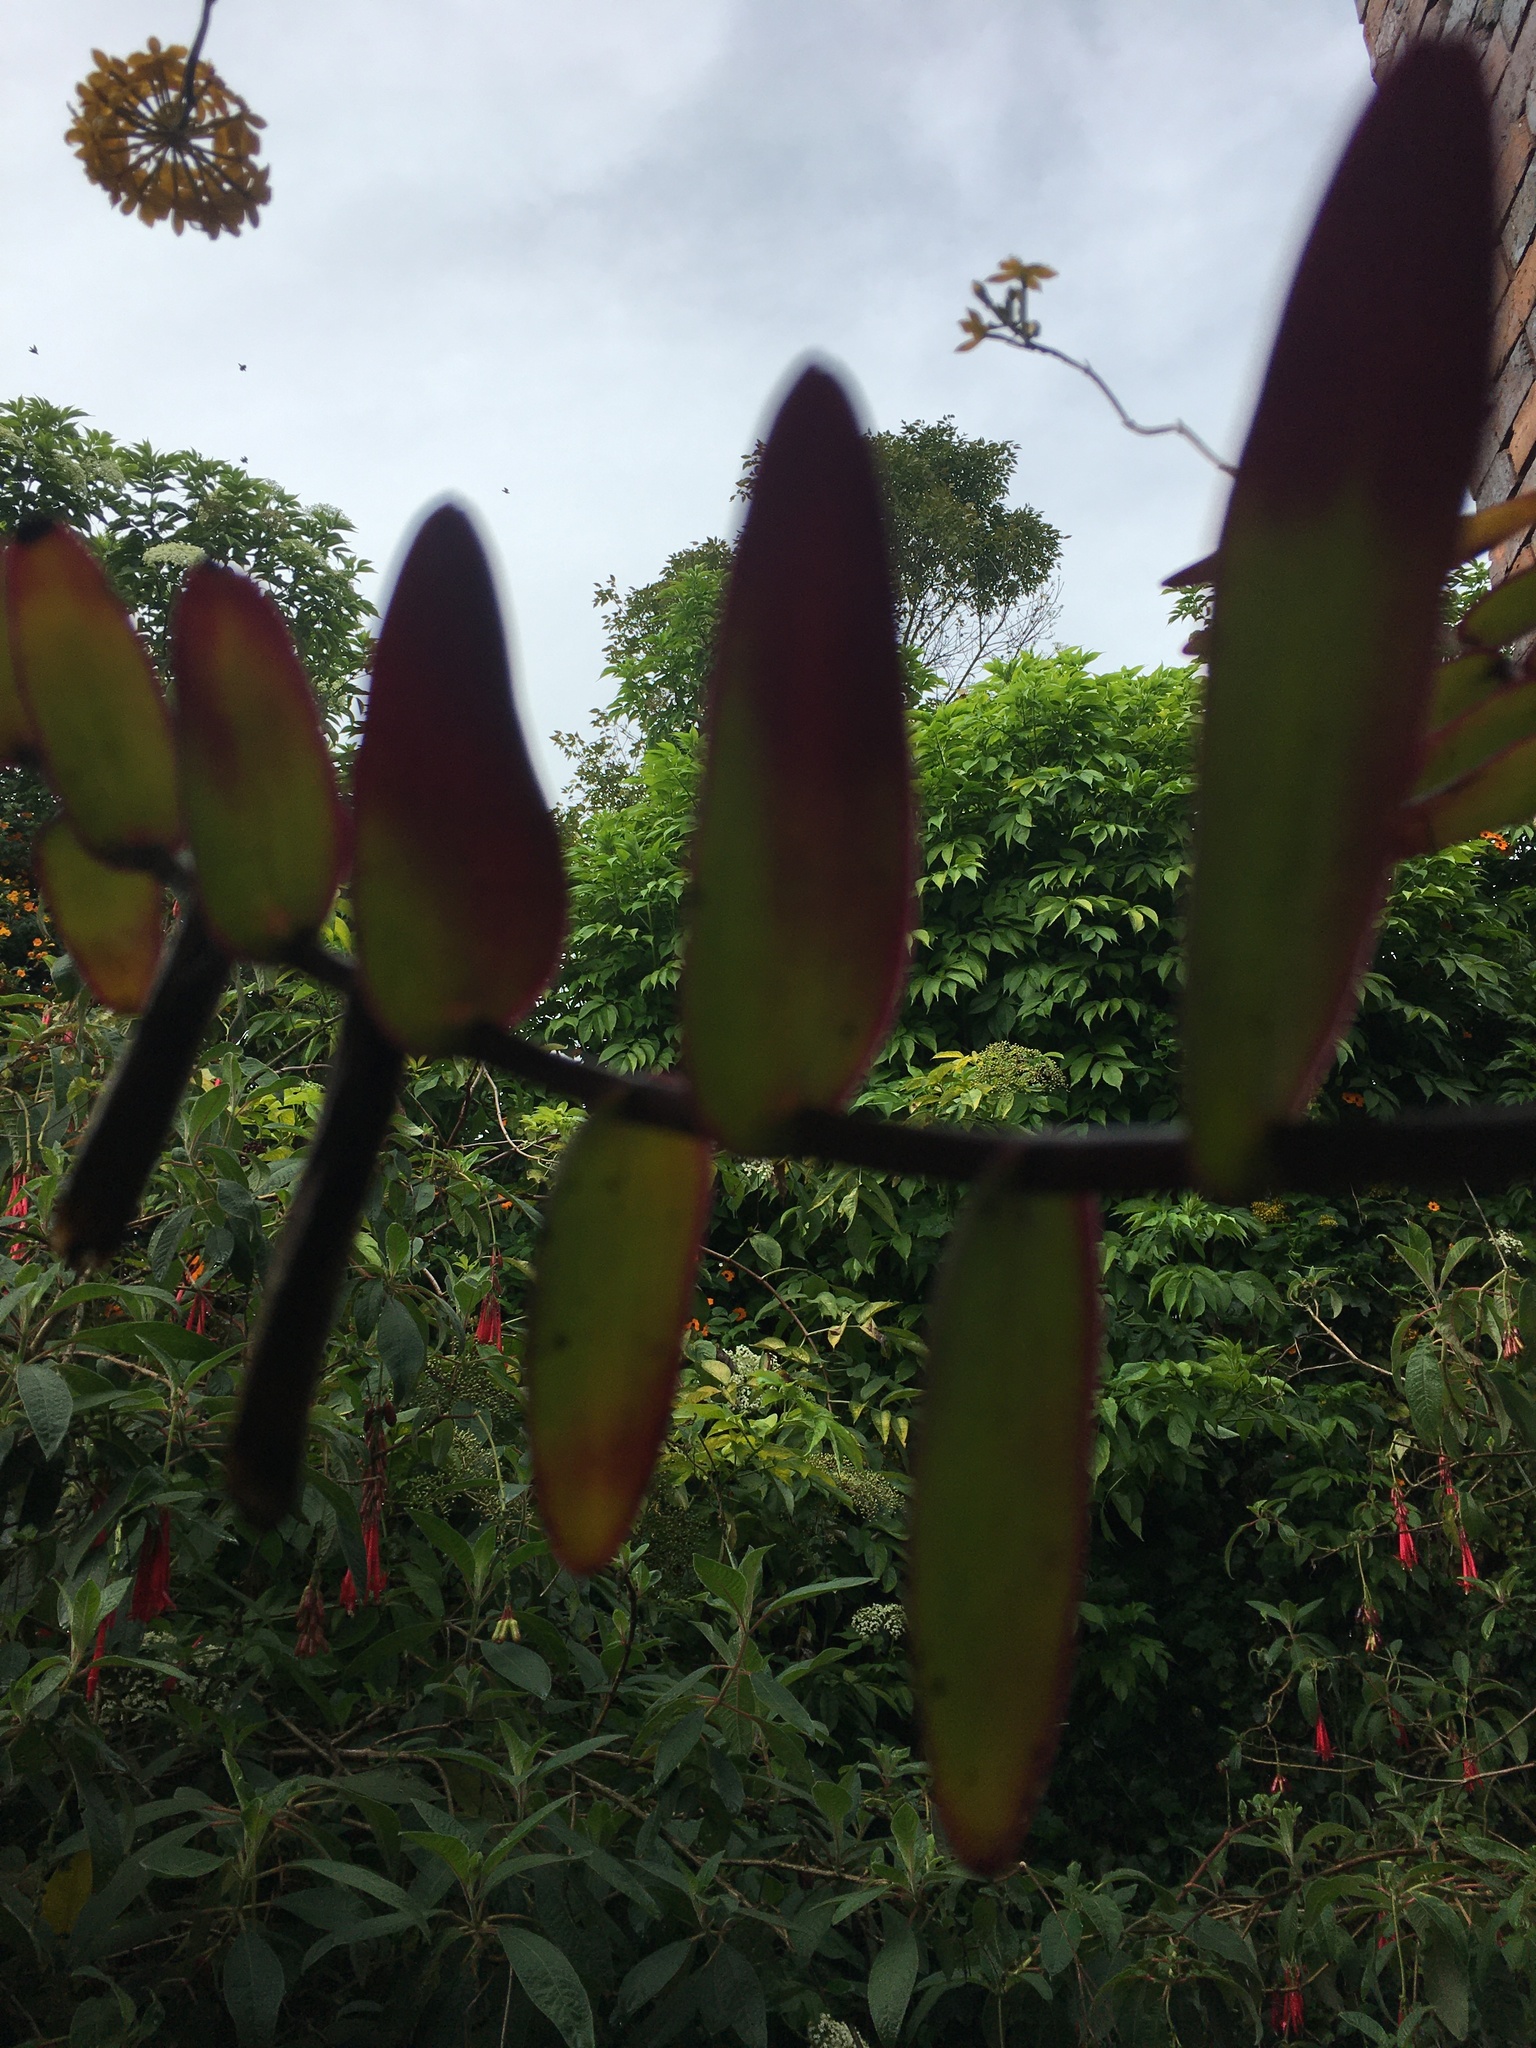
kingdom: Plantae
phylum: Tracheophyta
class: Liliopsida
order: Asparagales
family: Orchidaceae
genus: Epidendrum
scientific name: Epidendrum aura-usecheae
